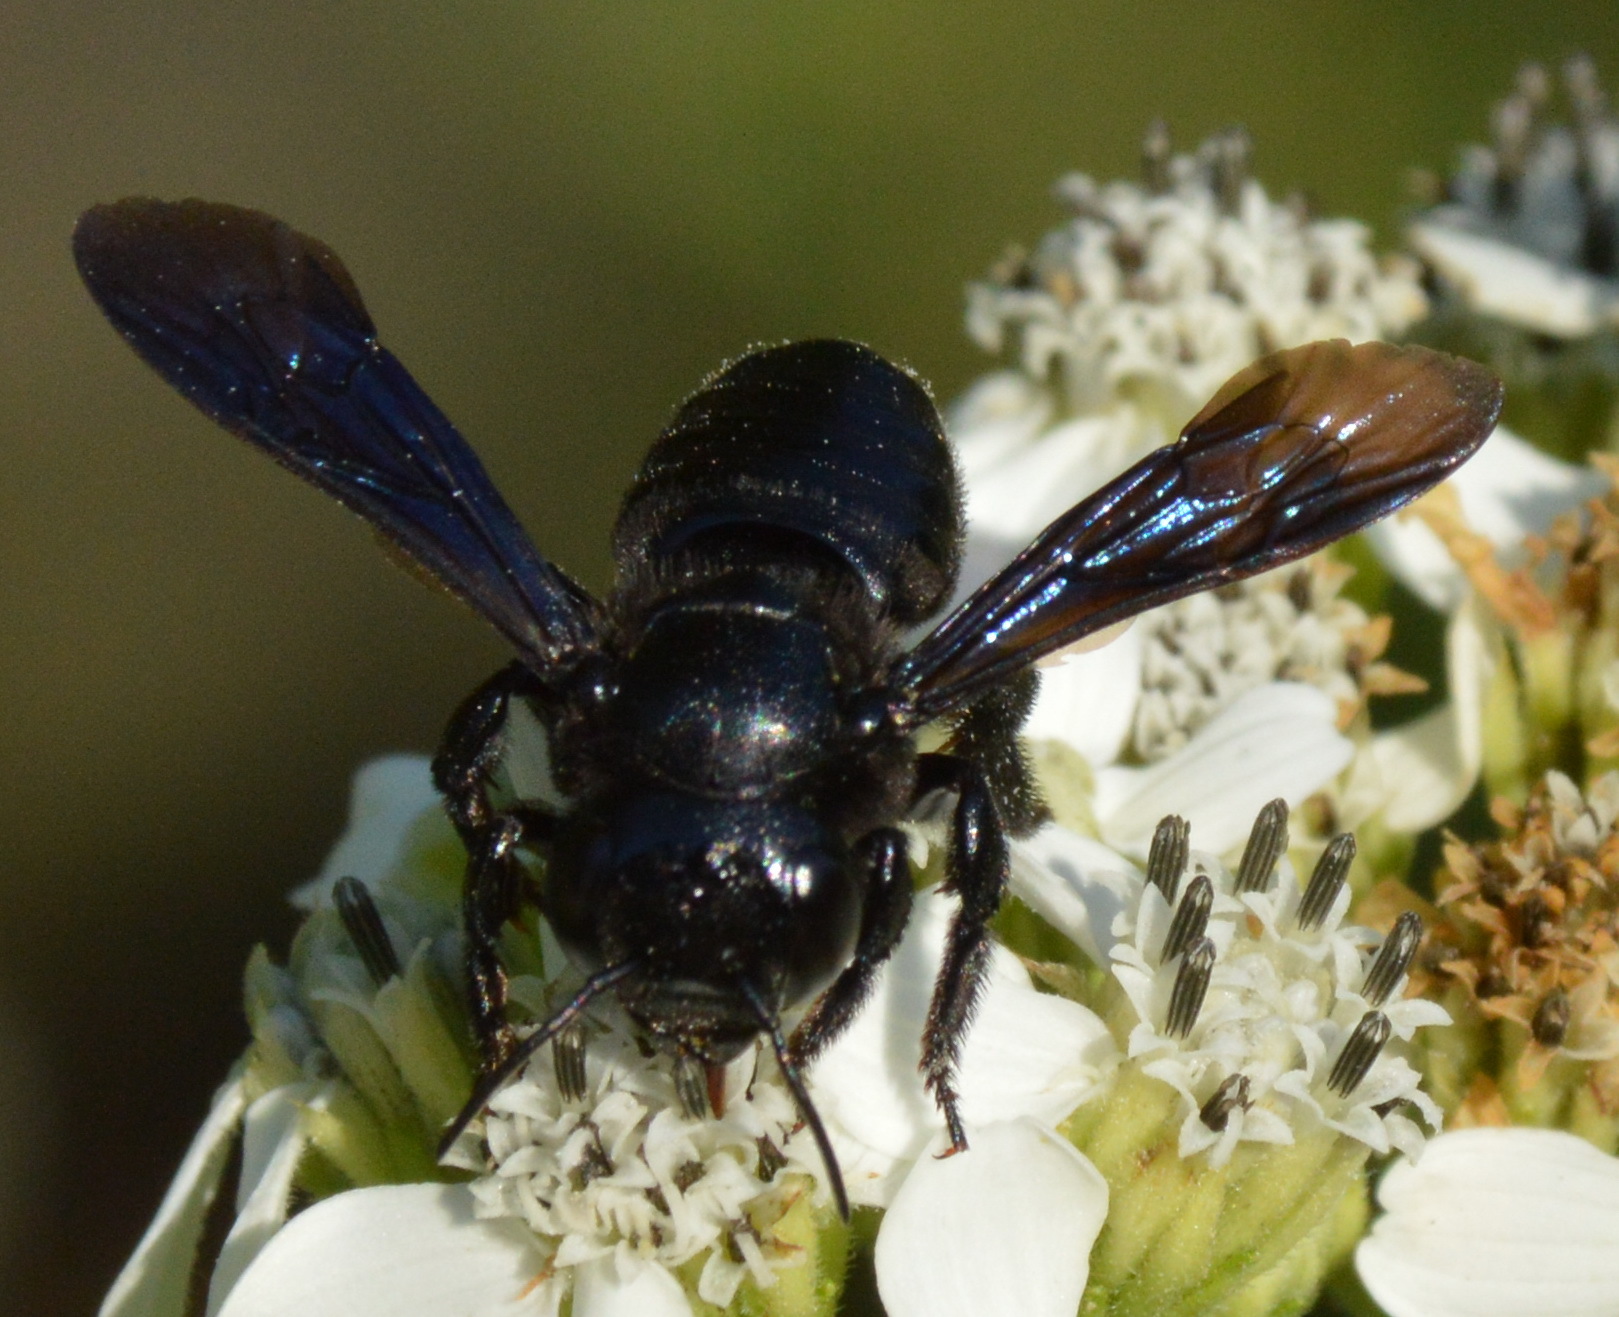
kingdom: Animalia
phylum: Arthropoda
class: Insecta
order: Hymenoptera
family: Megachilidae
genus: Megachile
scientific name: Megachile xylocopoides
